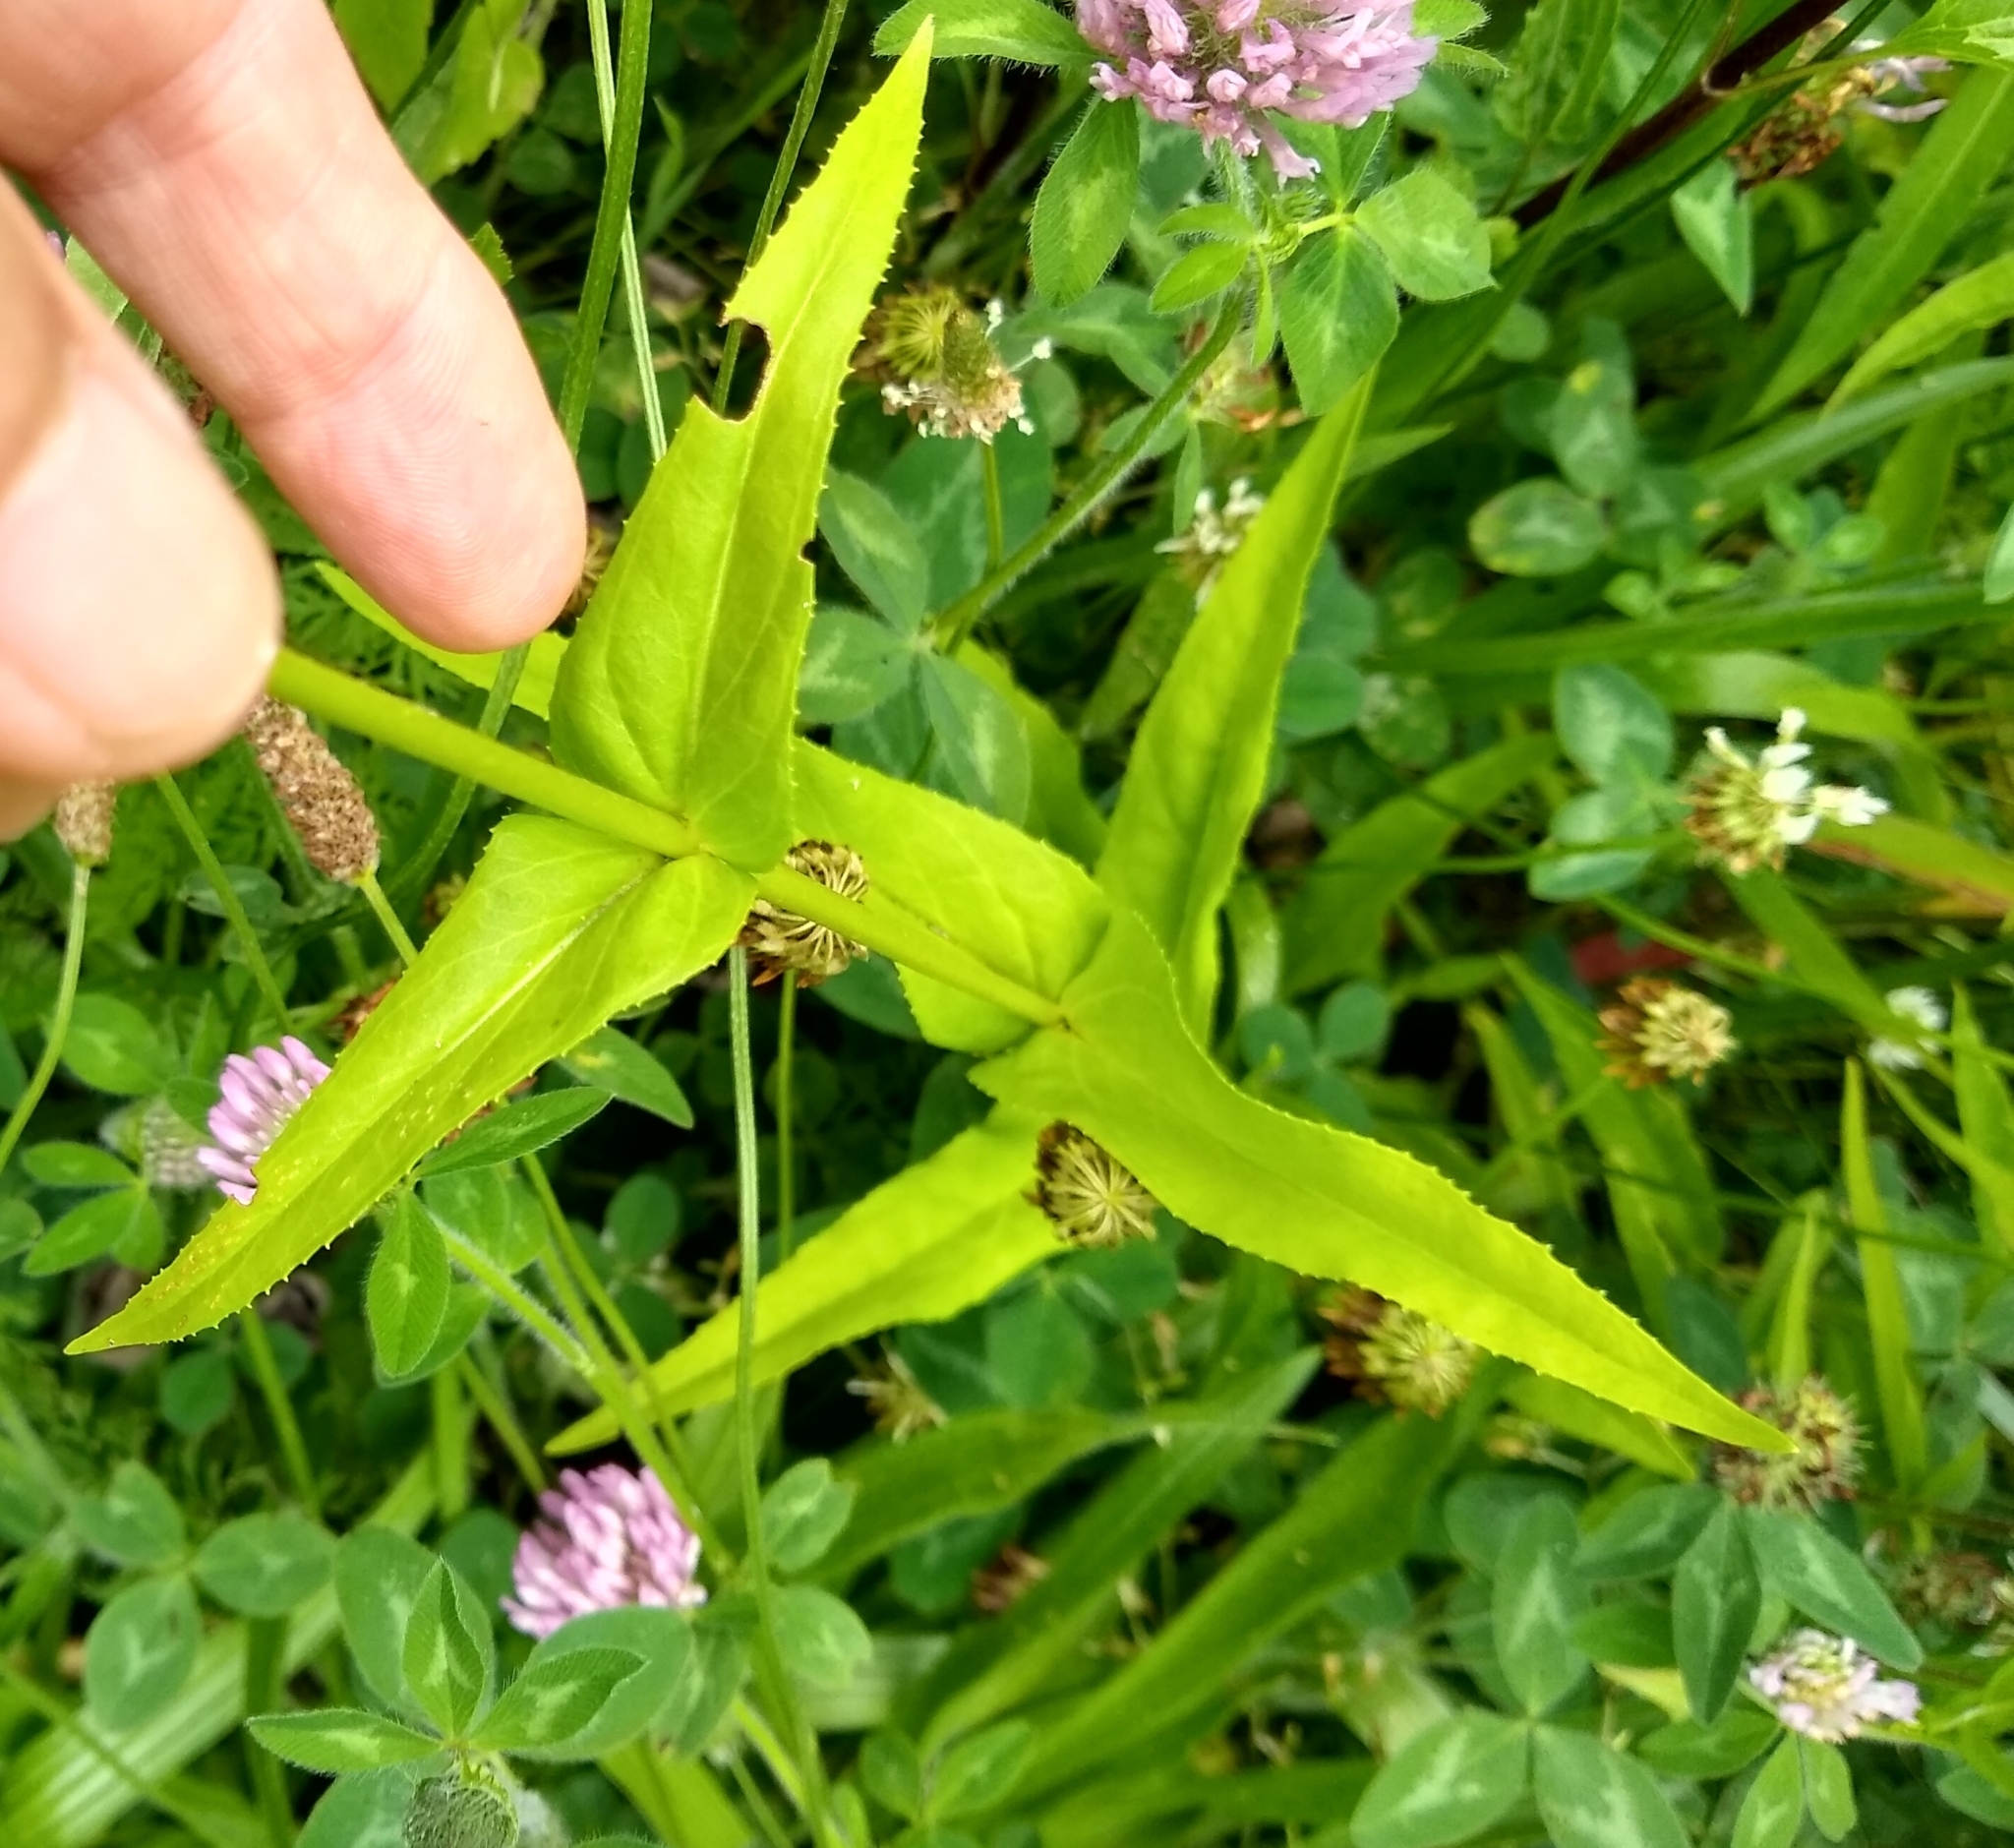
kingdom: Plantae
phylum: Tracheophyta
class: Magnoliopsida
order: Lamiales
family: Plantaginaceae
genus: Penstemon
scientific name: Penstemon digitalis
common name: Foxglove beardtongue
